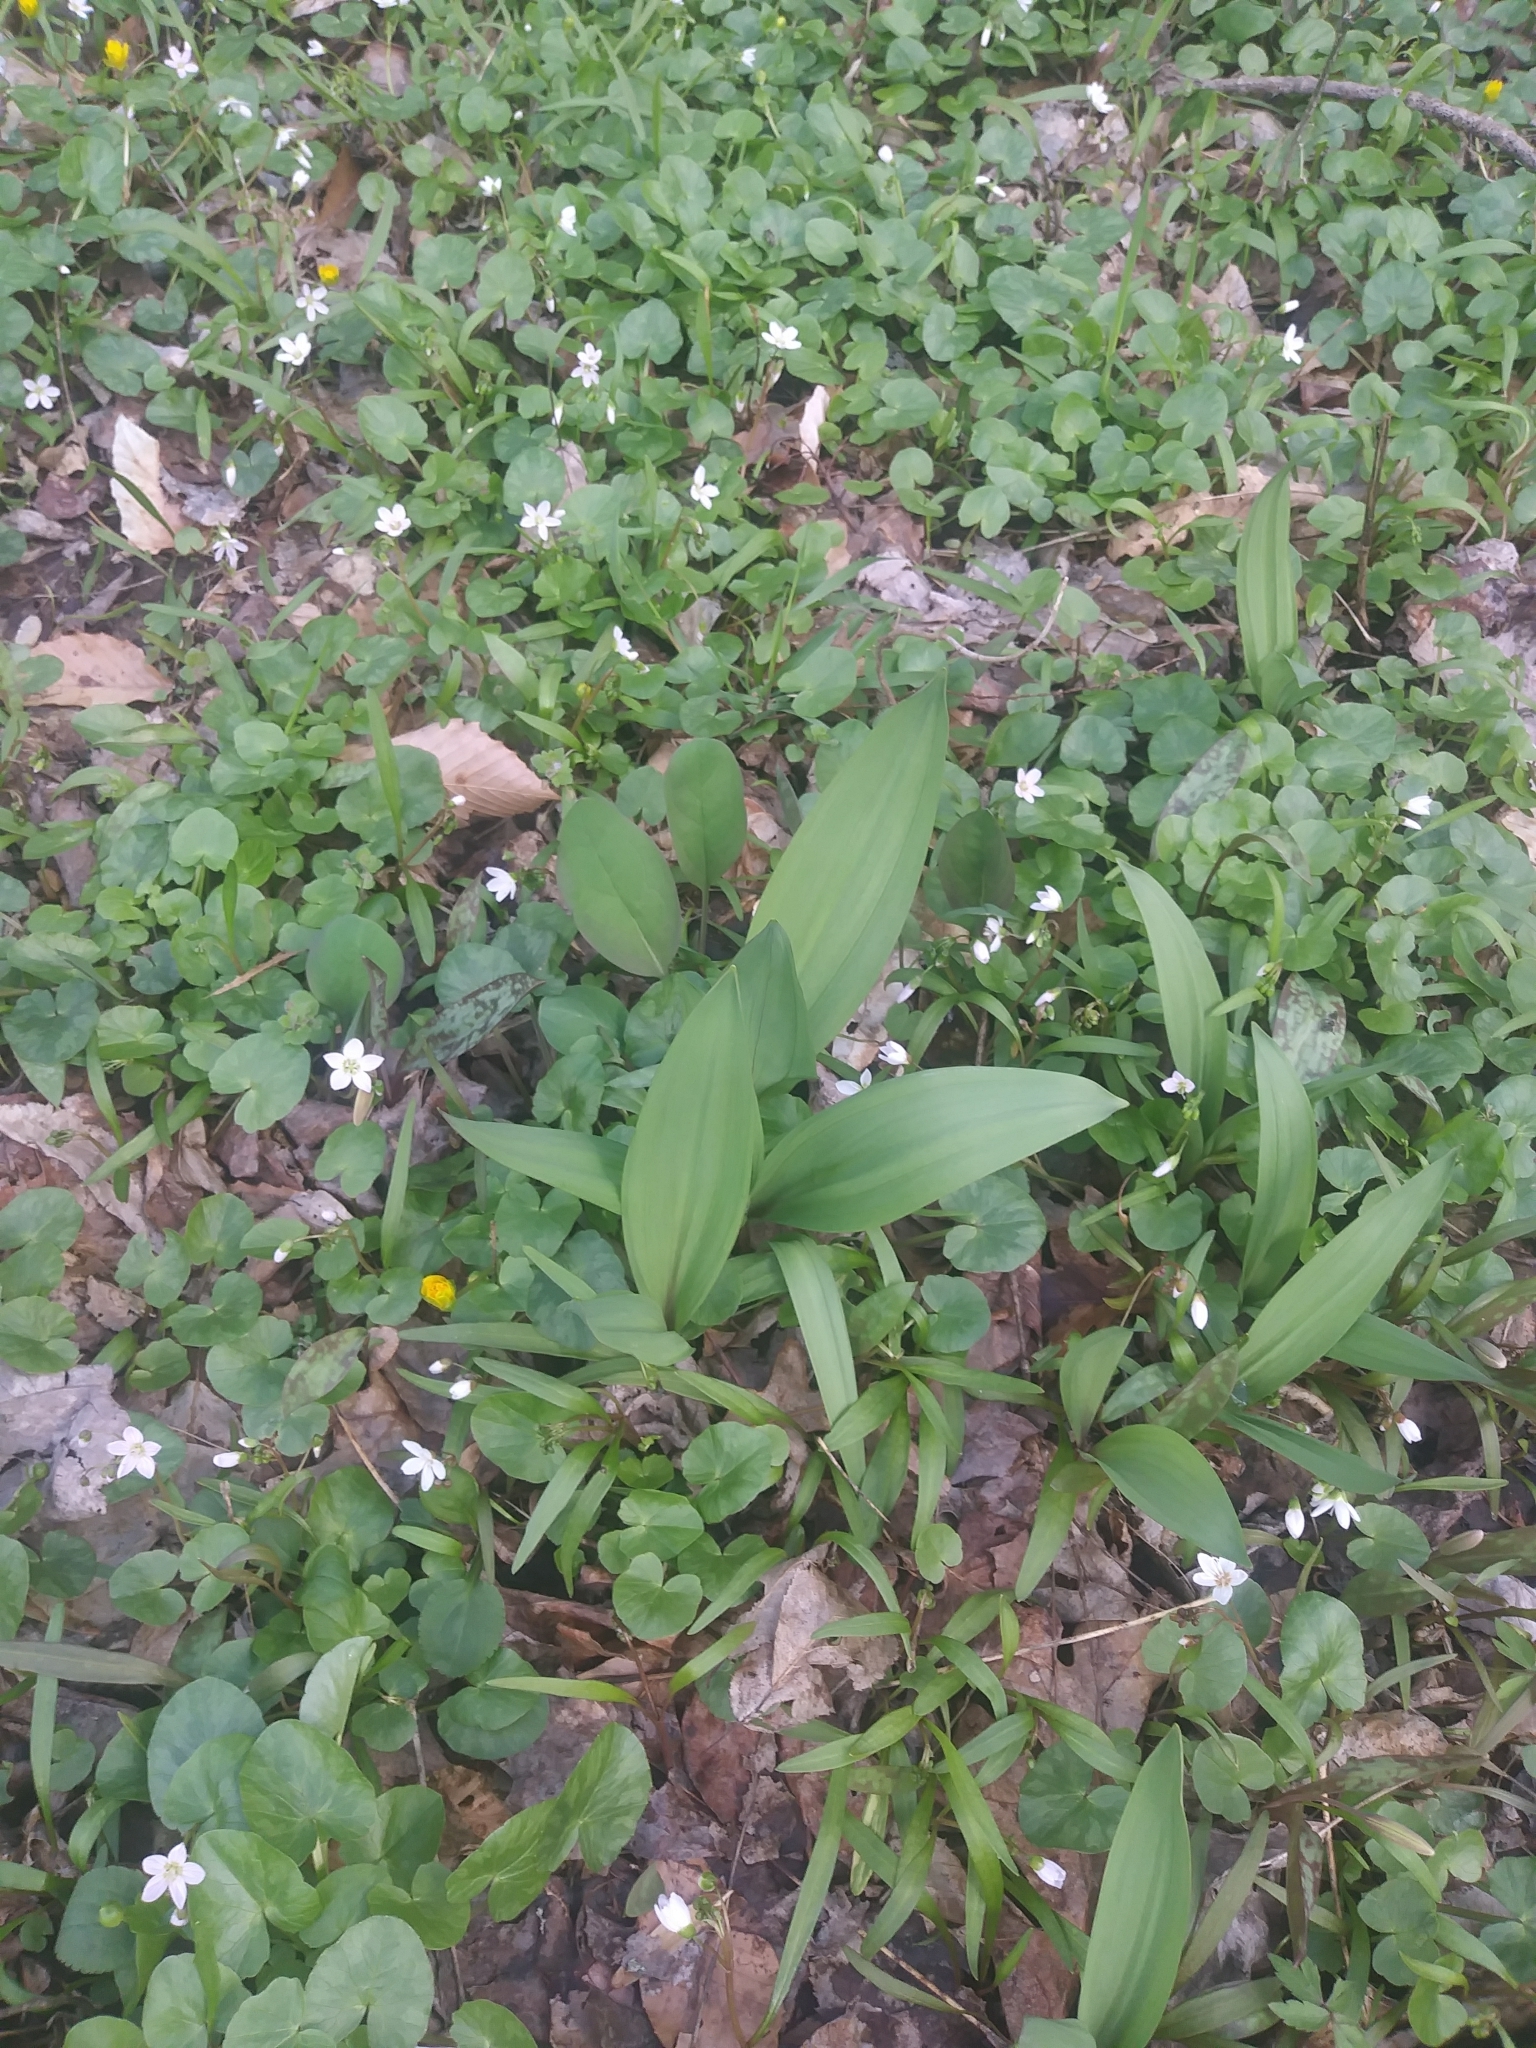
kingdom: Plantae
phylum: Tracheophyta
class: Liliopsida
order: Asparagales
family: Amaryllidaceae
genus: Allium
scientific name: Allium tricoccum
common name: Ramp
